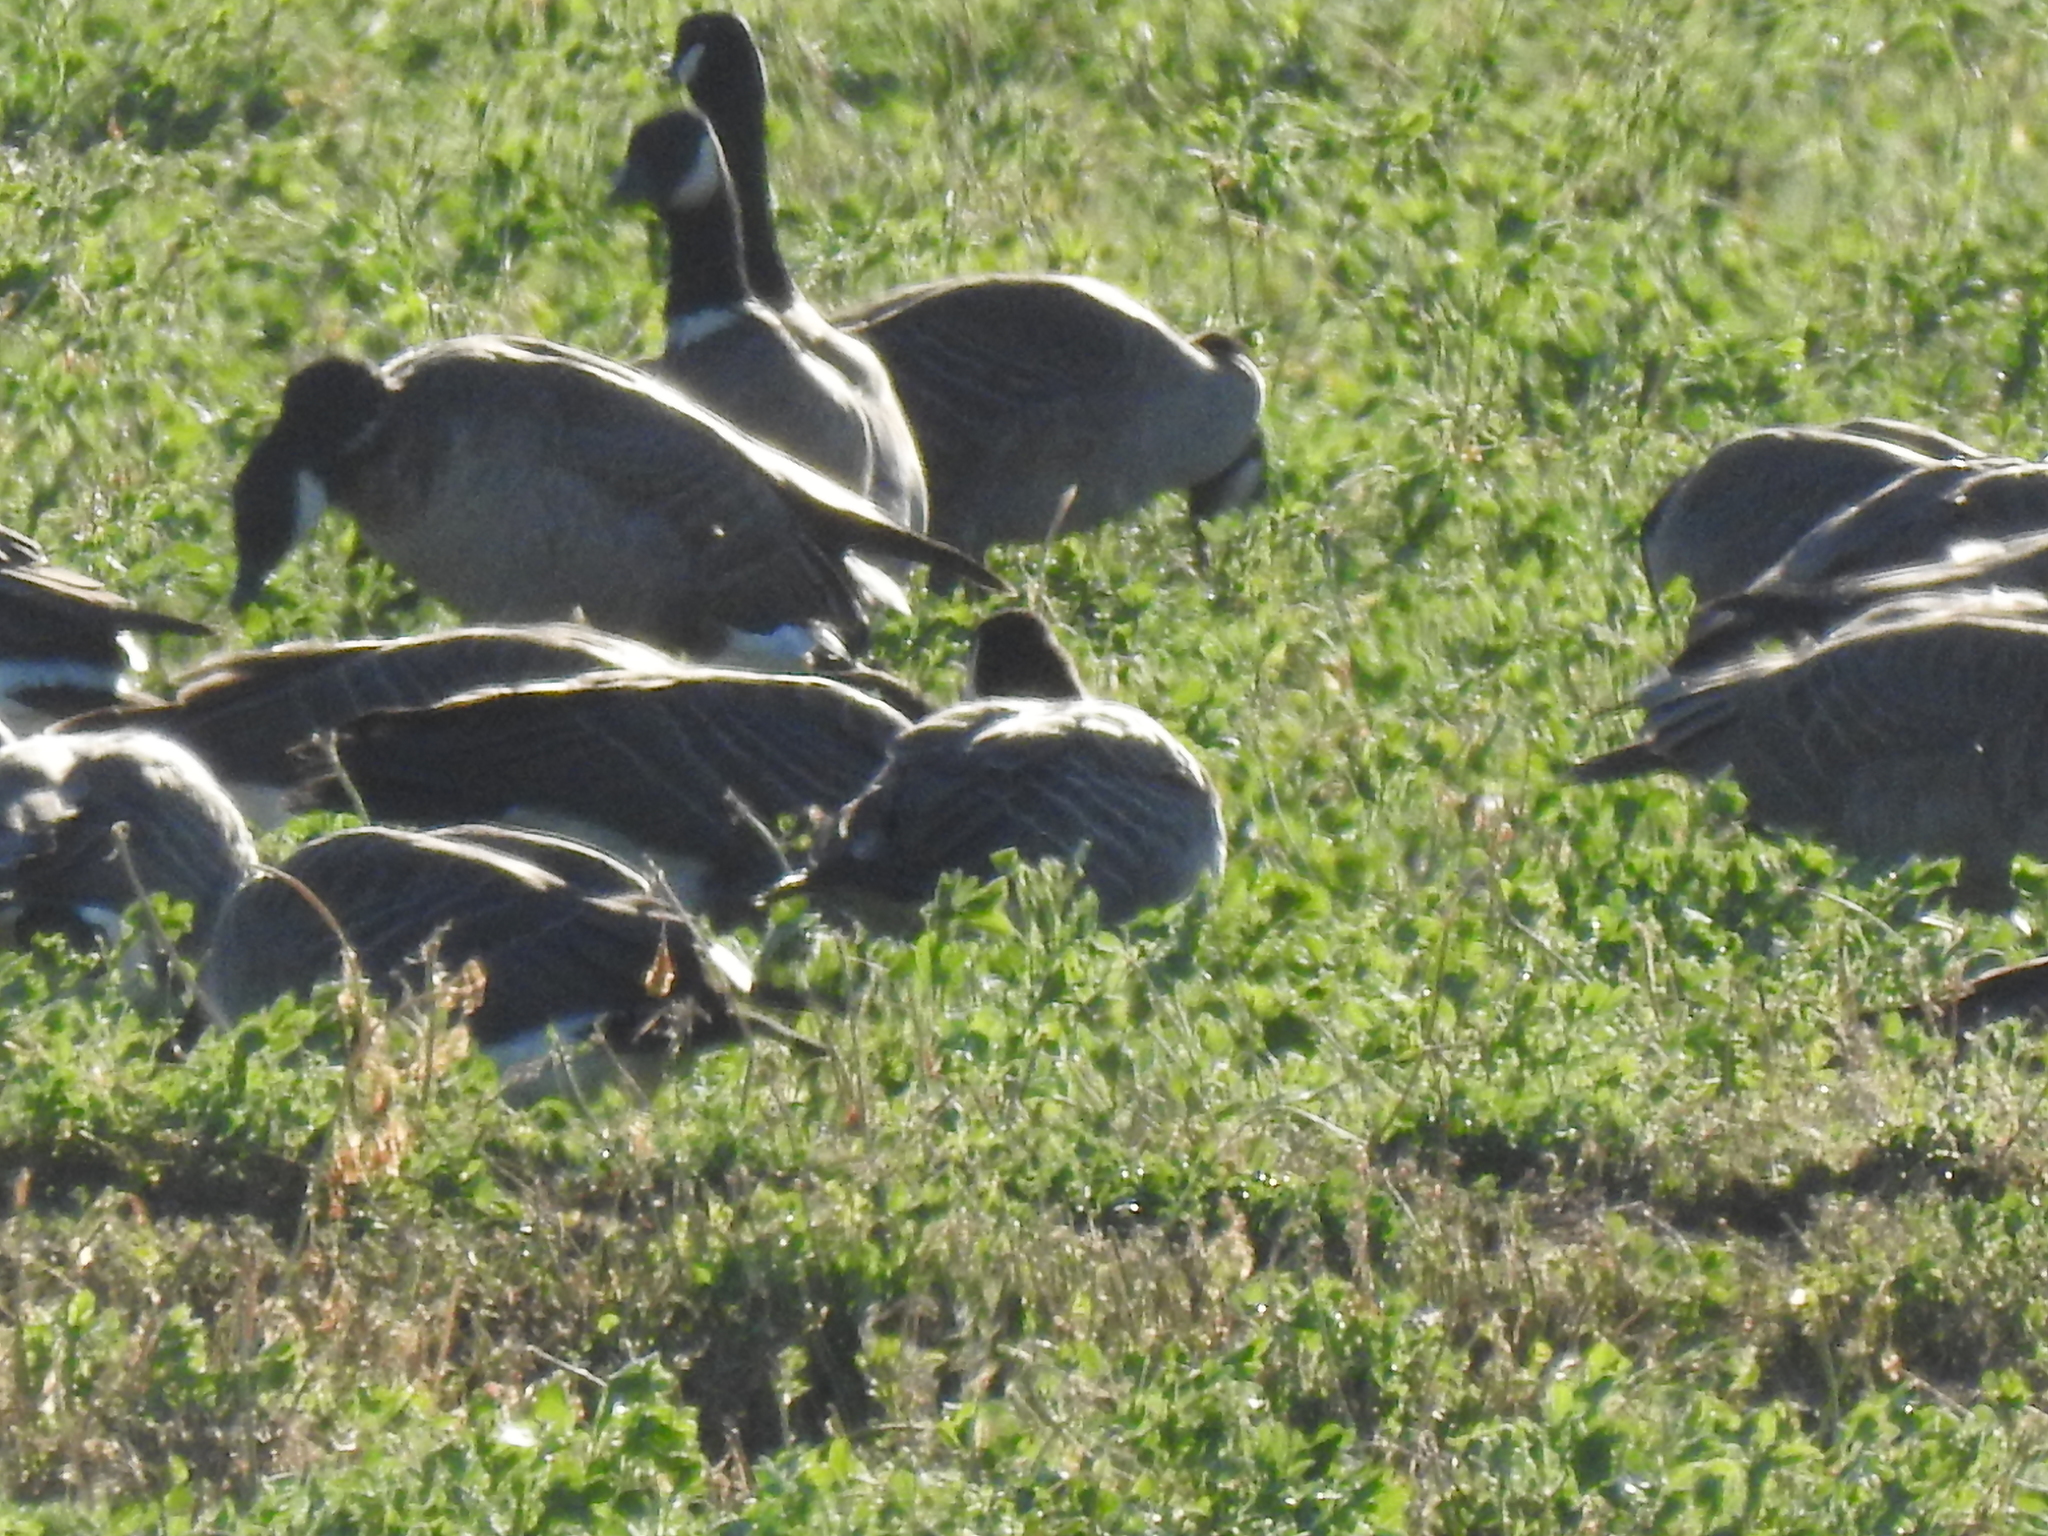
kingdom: Animalia
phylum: Chordata
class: Aves
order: Anseriformes
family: Anatidae
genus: Branta
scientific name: Branta hutchinsii
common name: Cackling goose
